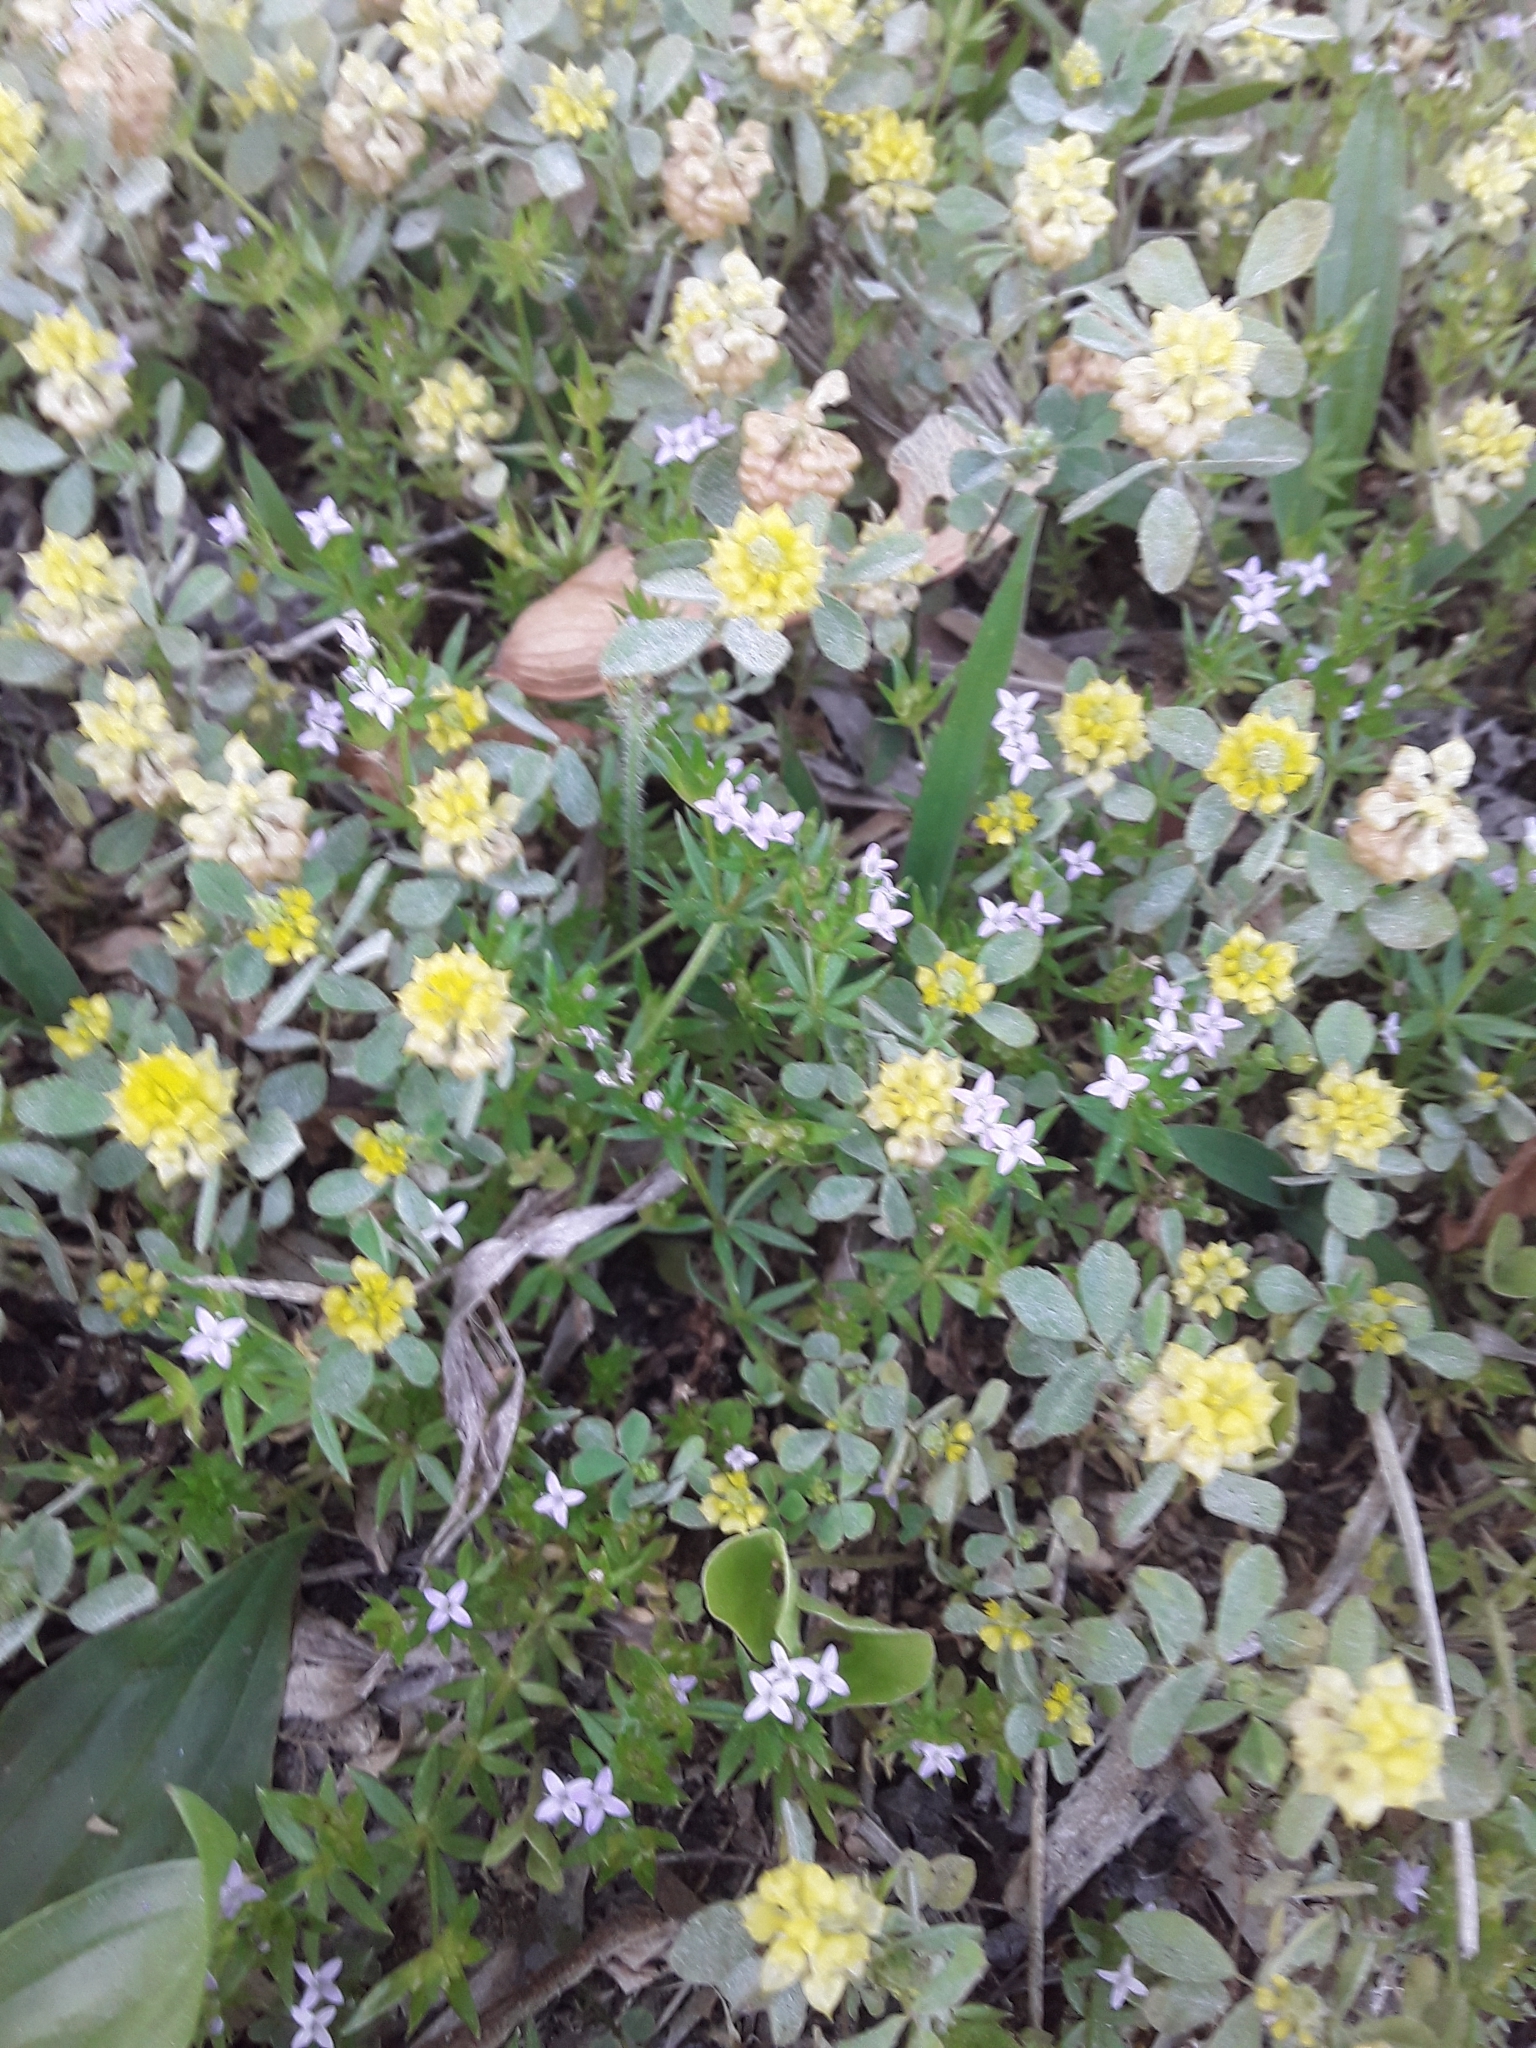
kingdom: Plantae
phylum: Tracheophyta
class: Magnoliopsida
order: Fabales
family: Fabaceae
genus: Trifolium
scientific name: Trifolium campestre
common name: Field clover
